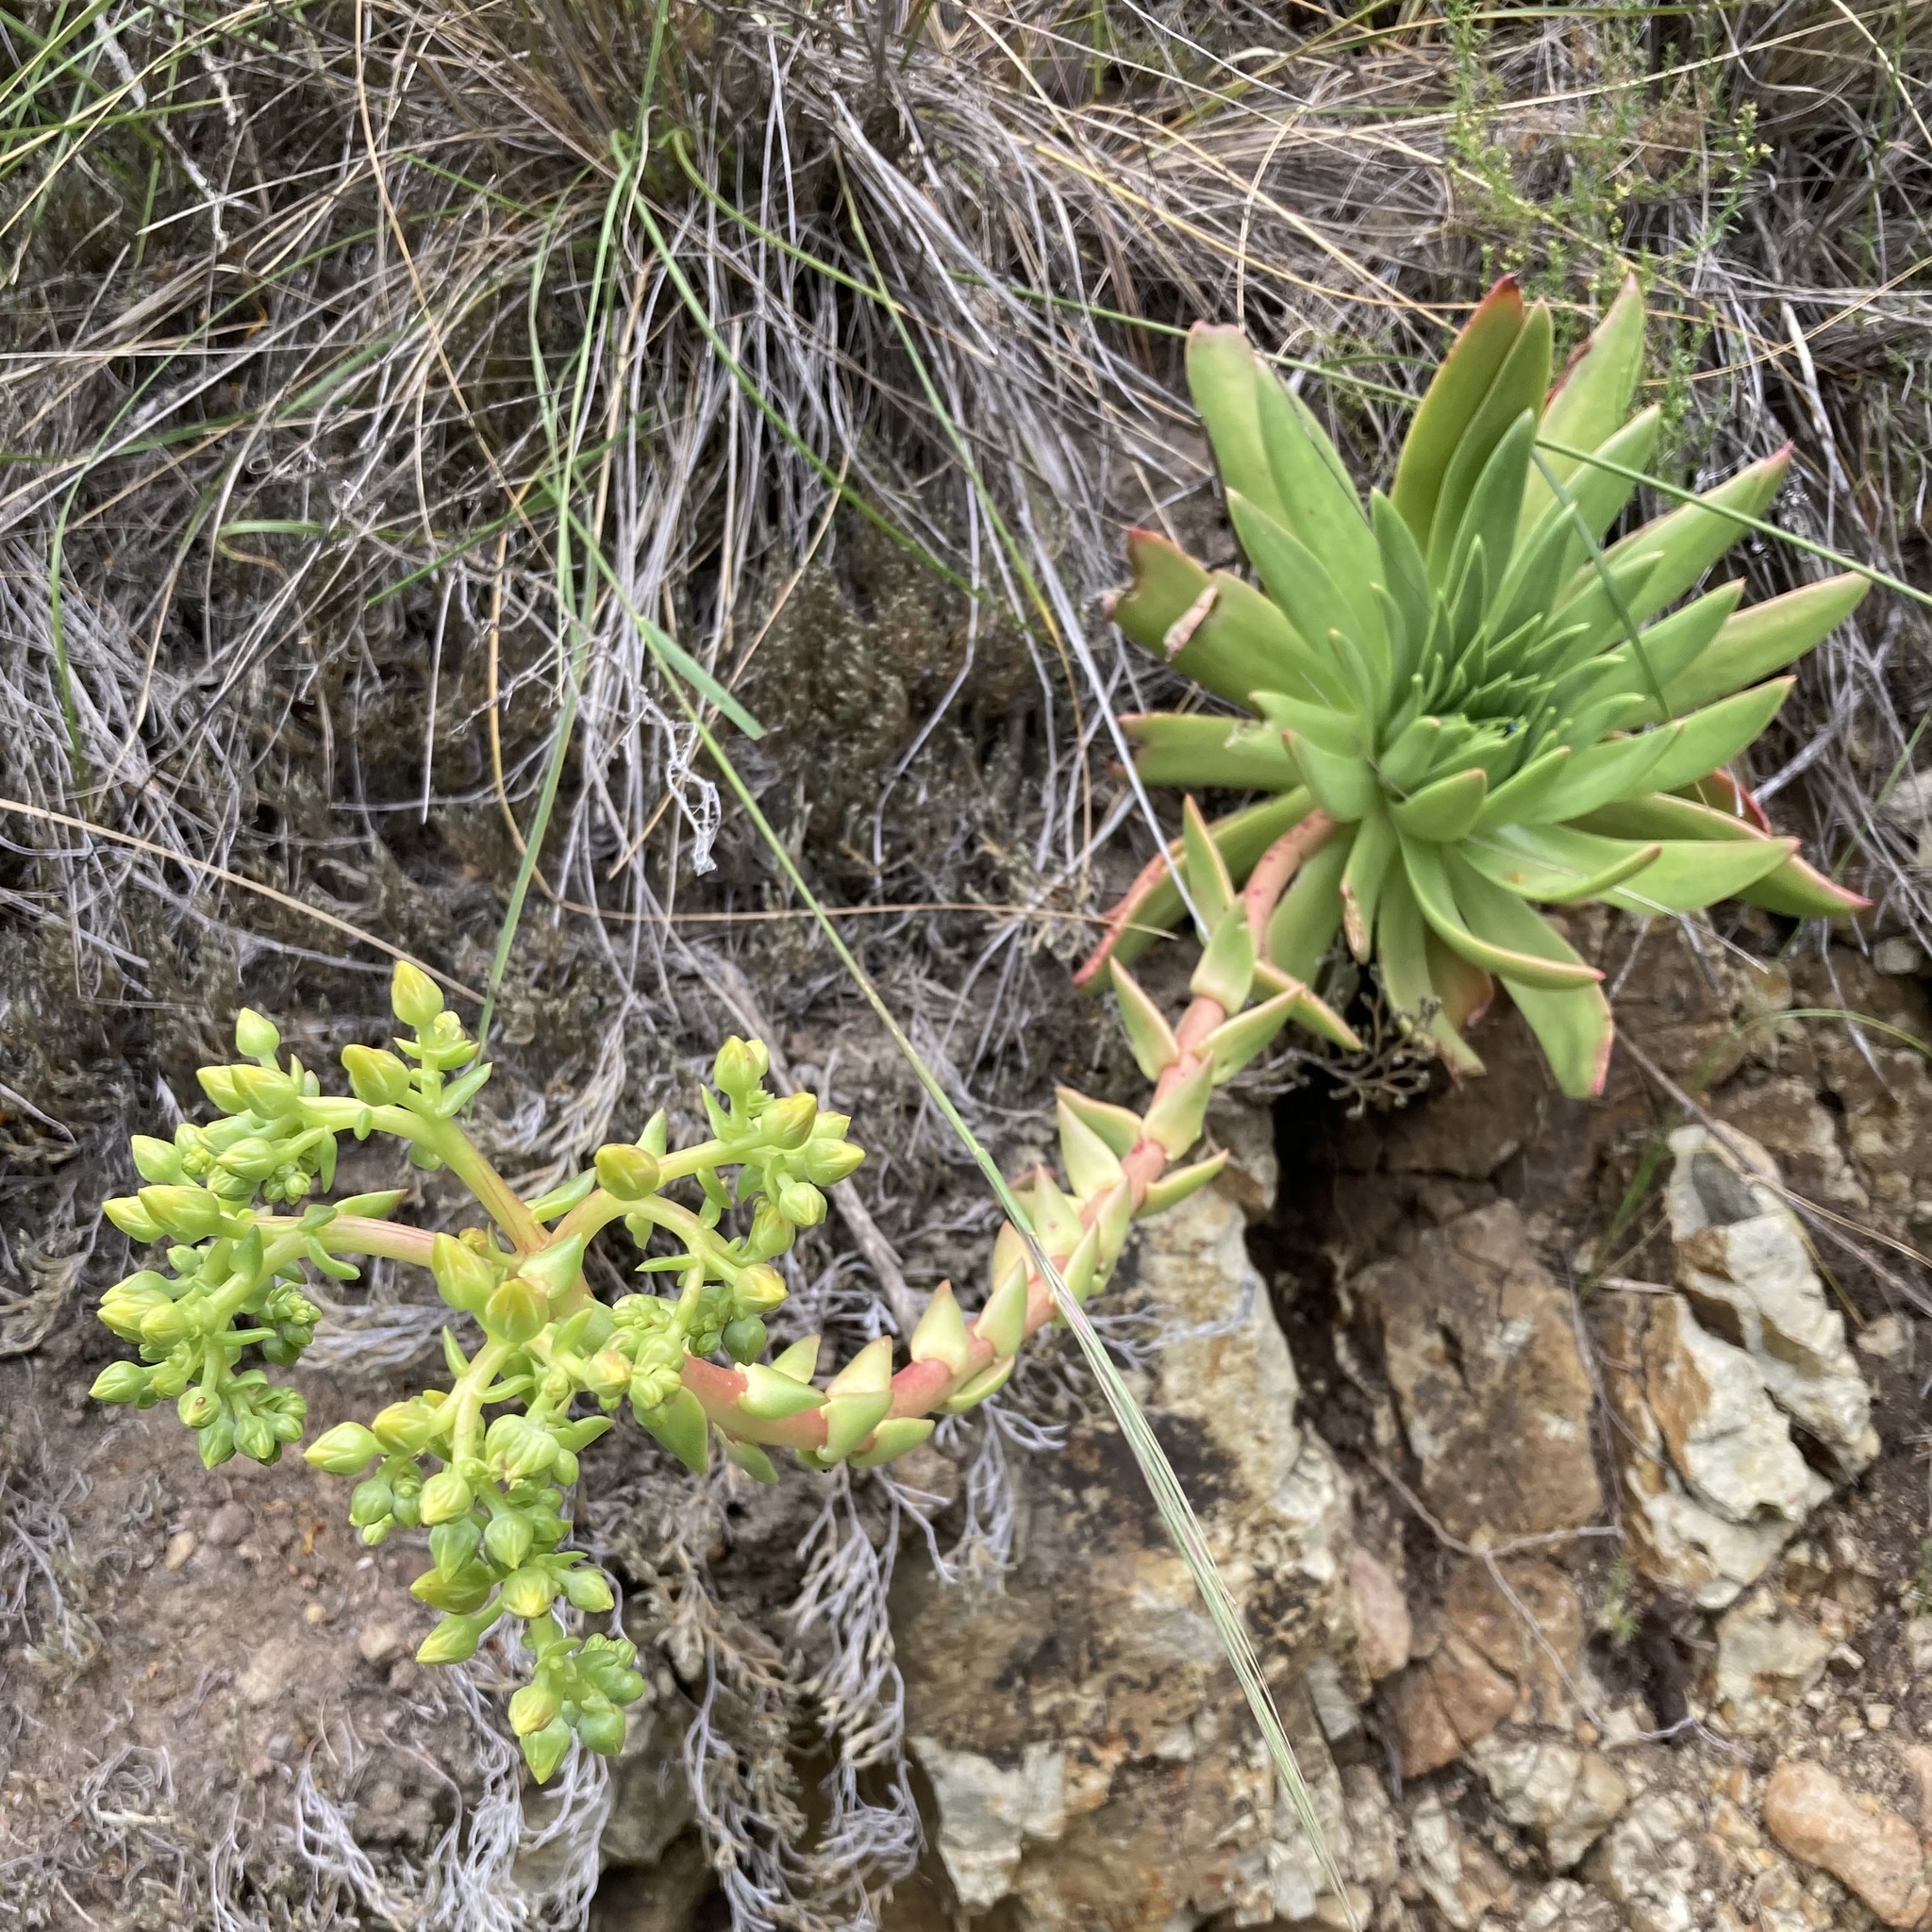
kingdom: Plantae
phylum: Tracheophyta
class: Magnoliopsida
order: Saxifragales
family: Crassulaceae
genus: Dudleya
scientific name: Dudleya candelabrum
